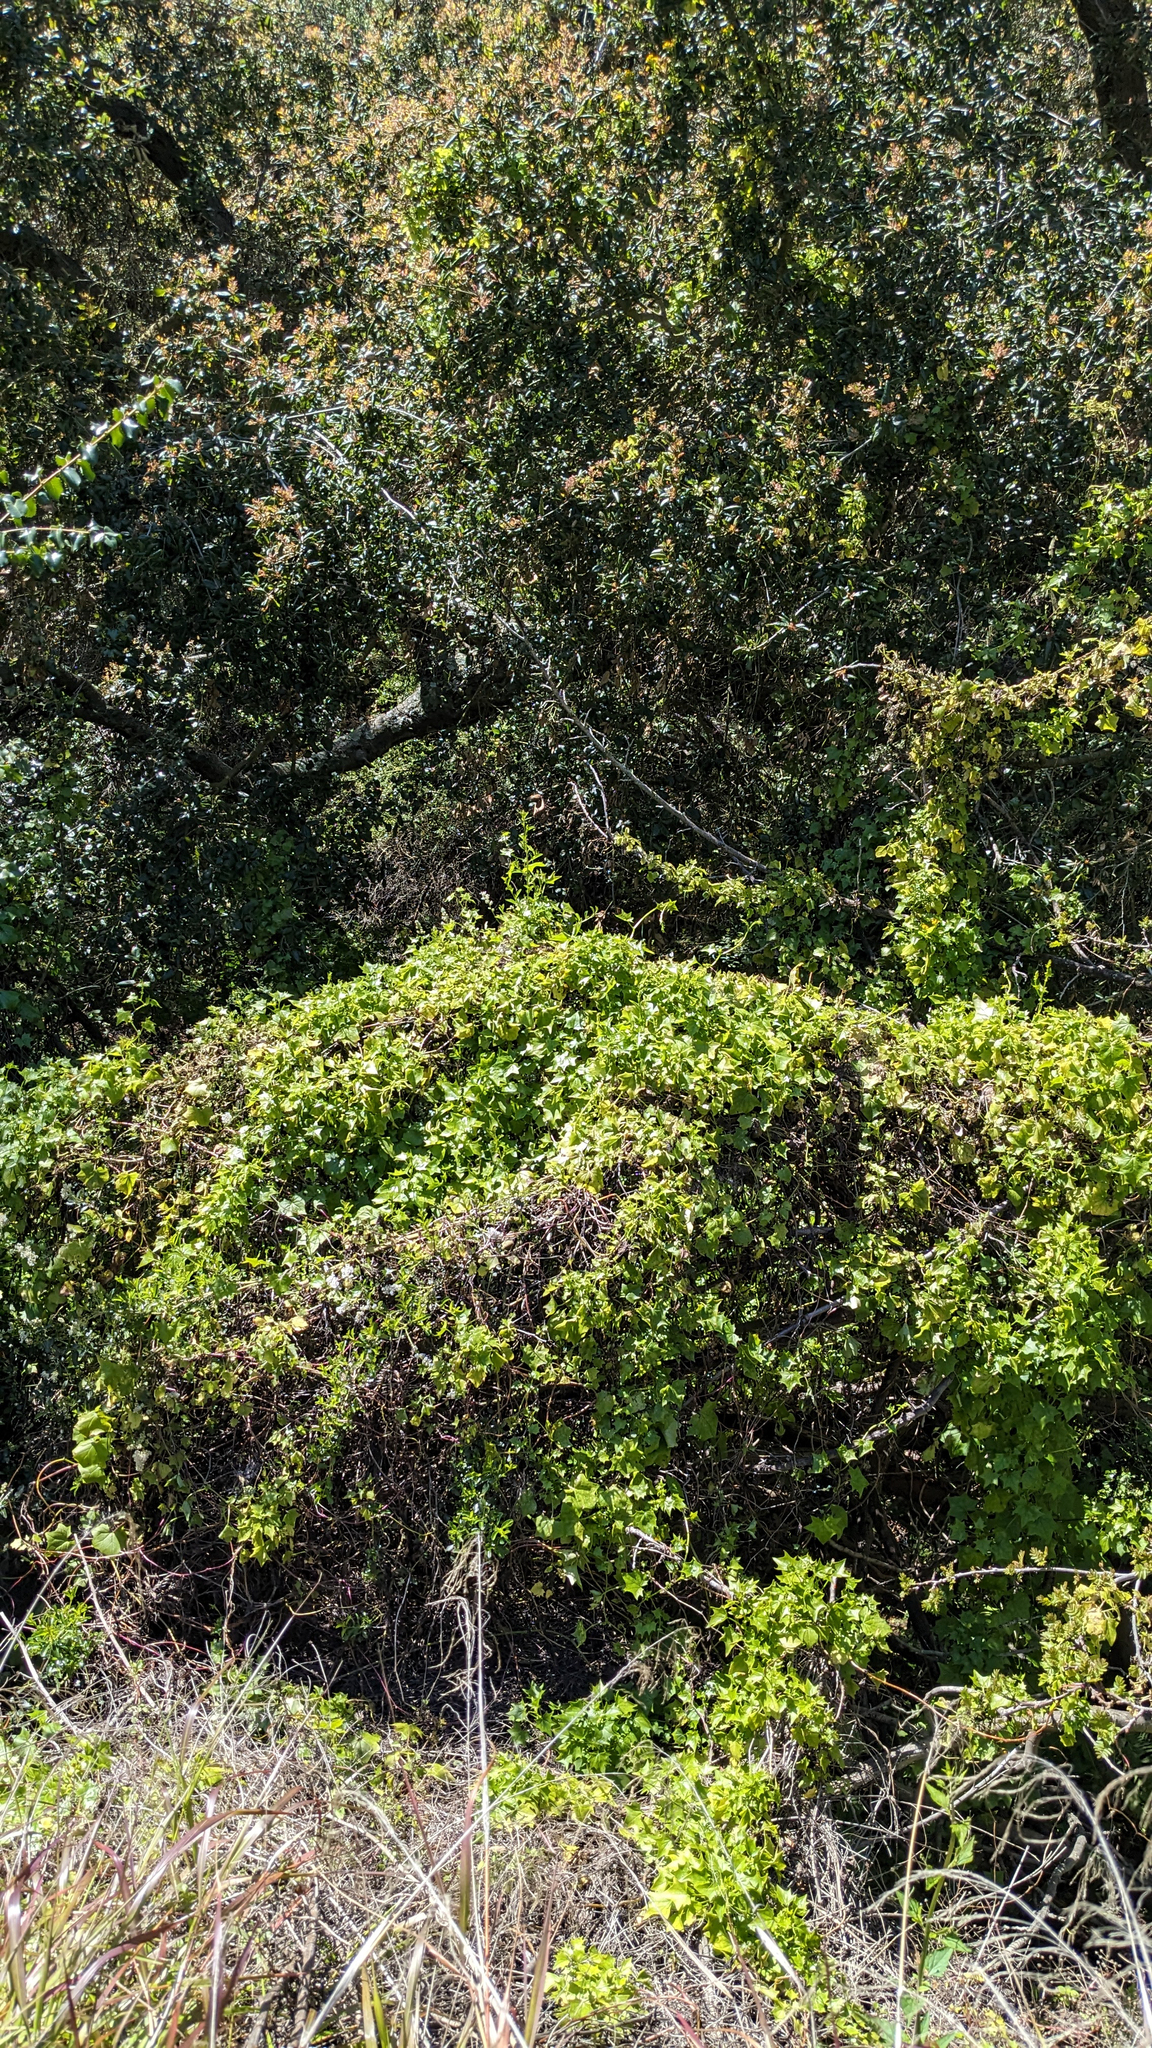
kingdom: Plantae
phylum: Tracheophyta
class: Magnoliopsida
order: Asterales
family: Asteraceae
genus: Delairea
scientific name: Delairea odorata
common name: Cape-ivy
